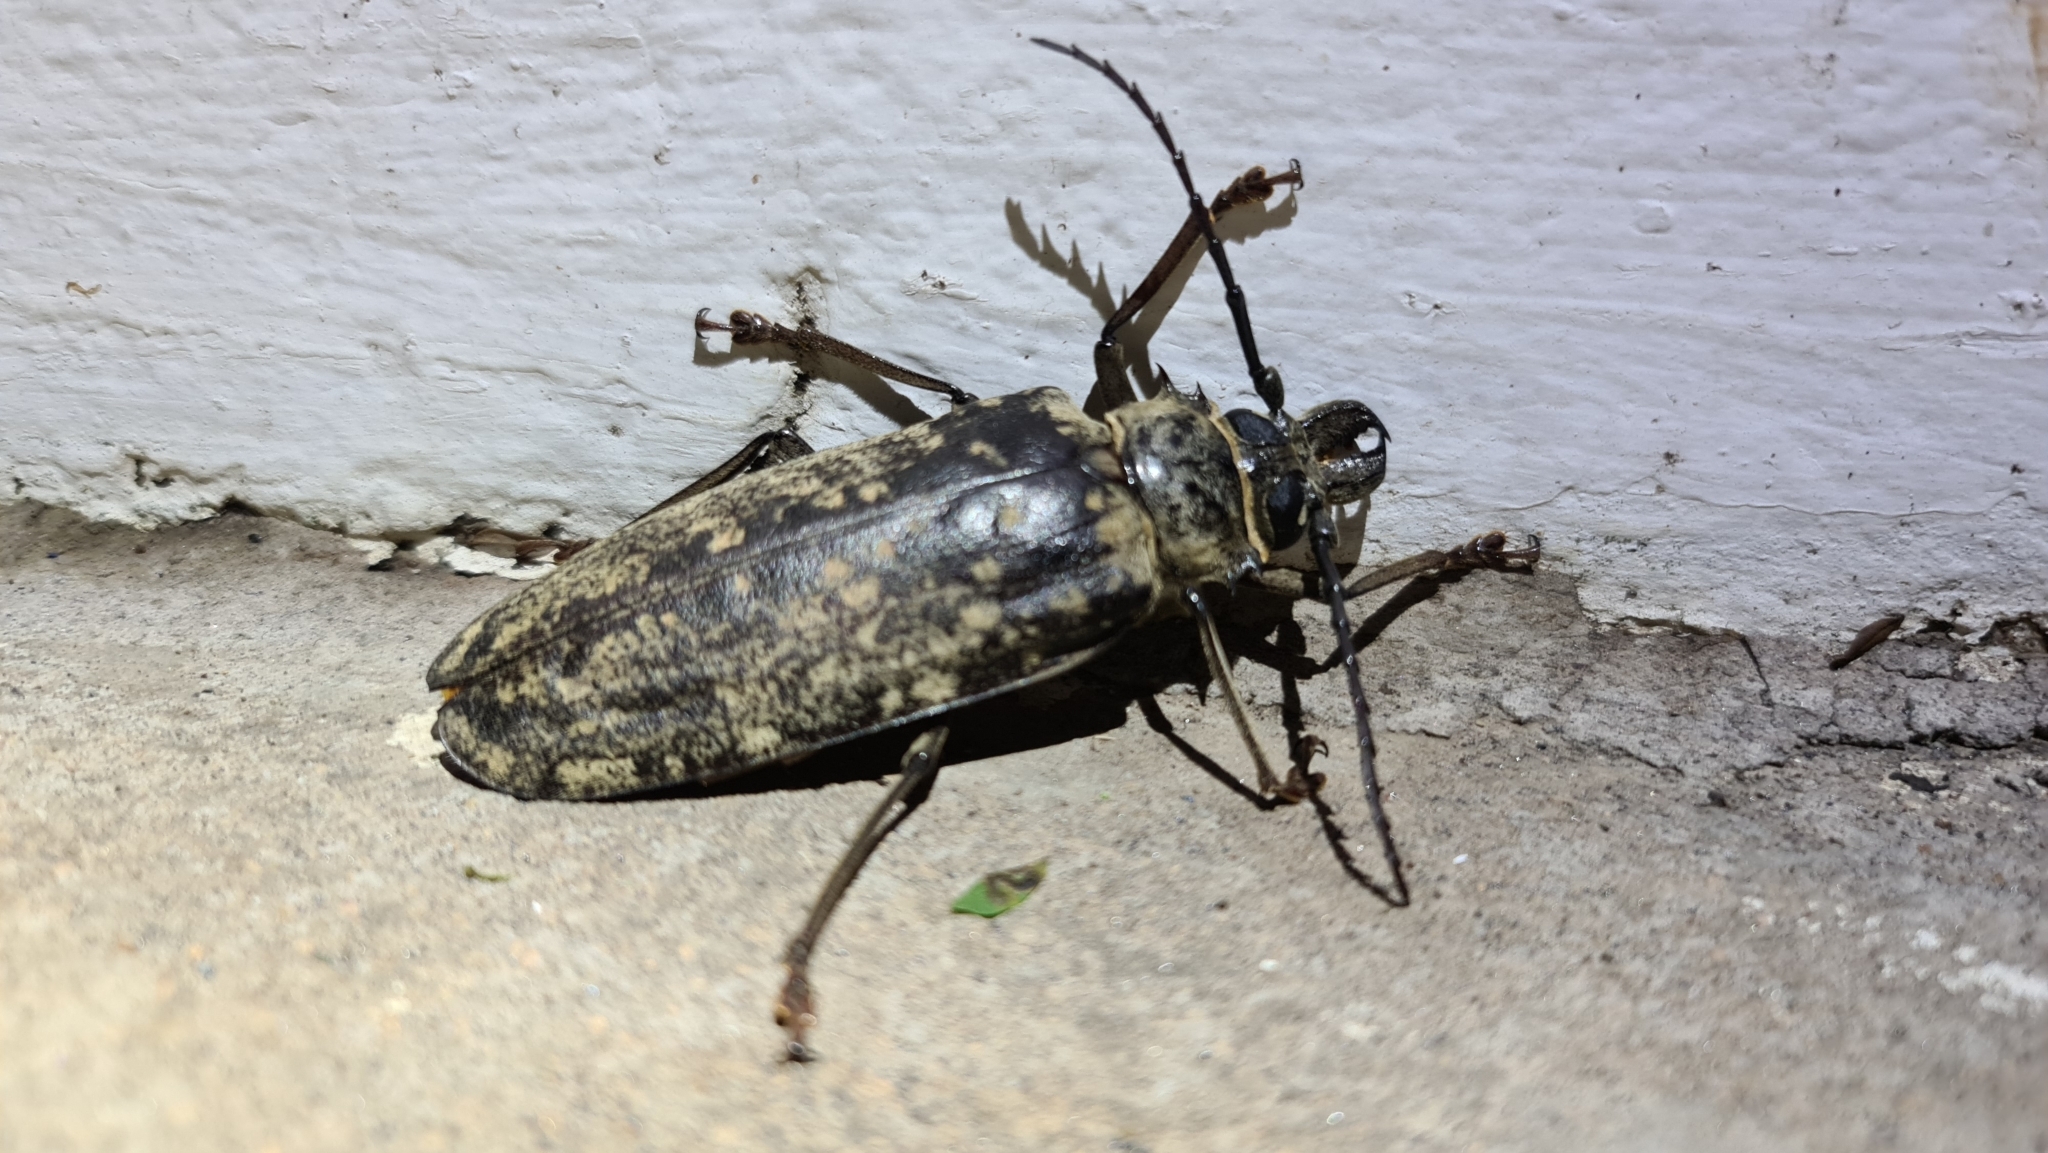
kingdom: Animalia
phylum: Arthropoda
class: Insecta
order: Coleoptera
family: Cerambycidae
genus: Tithoes
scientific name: Tithoes confinis
